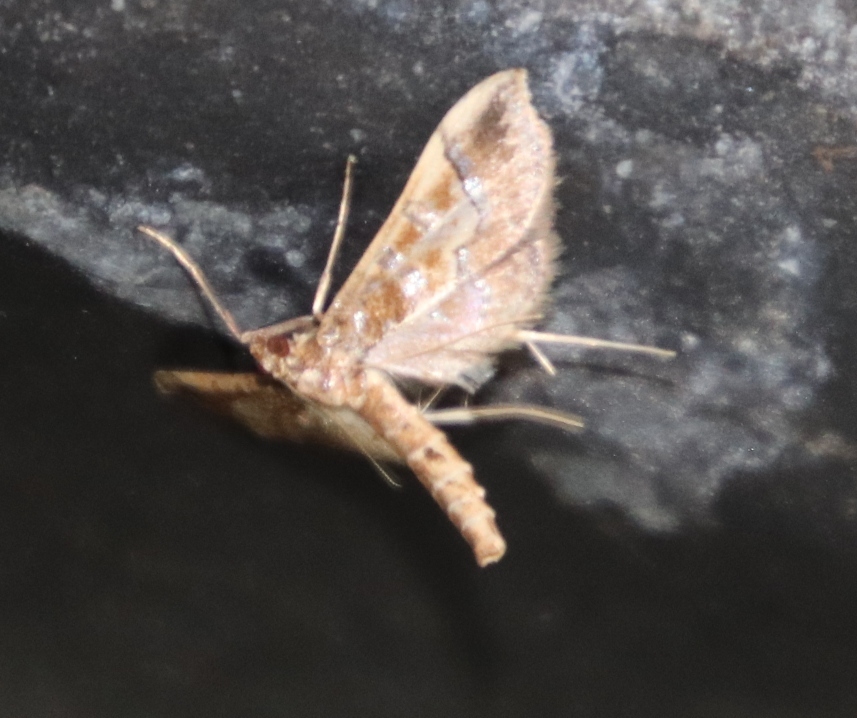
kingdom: Animalia
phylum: Arthropoda
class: Insecta
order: Lepidoptera
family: Crambidae
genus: Hydriris
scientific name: Hydriris ornatalis
